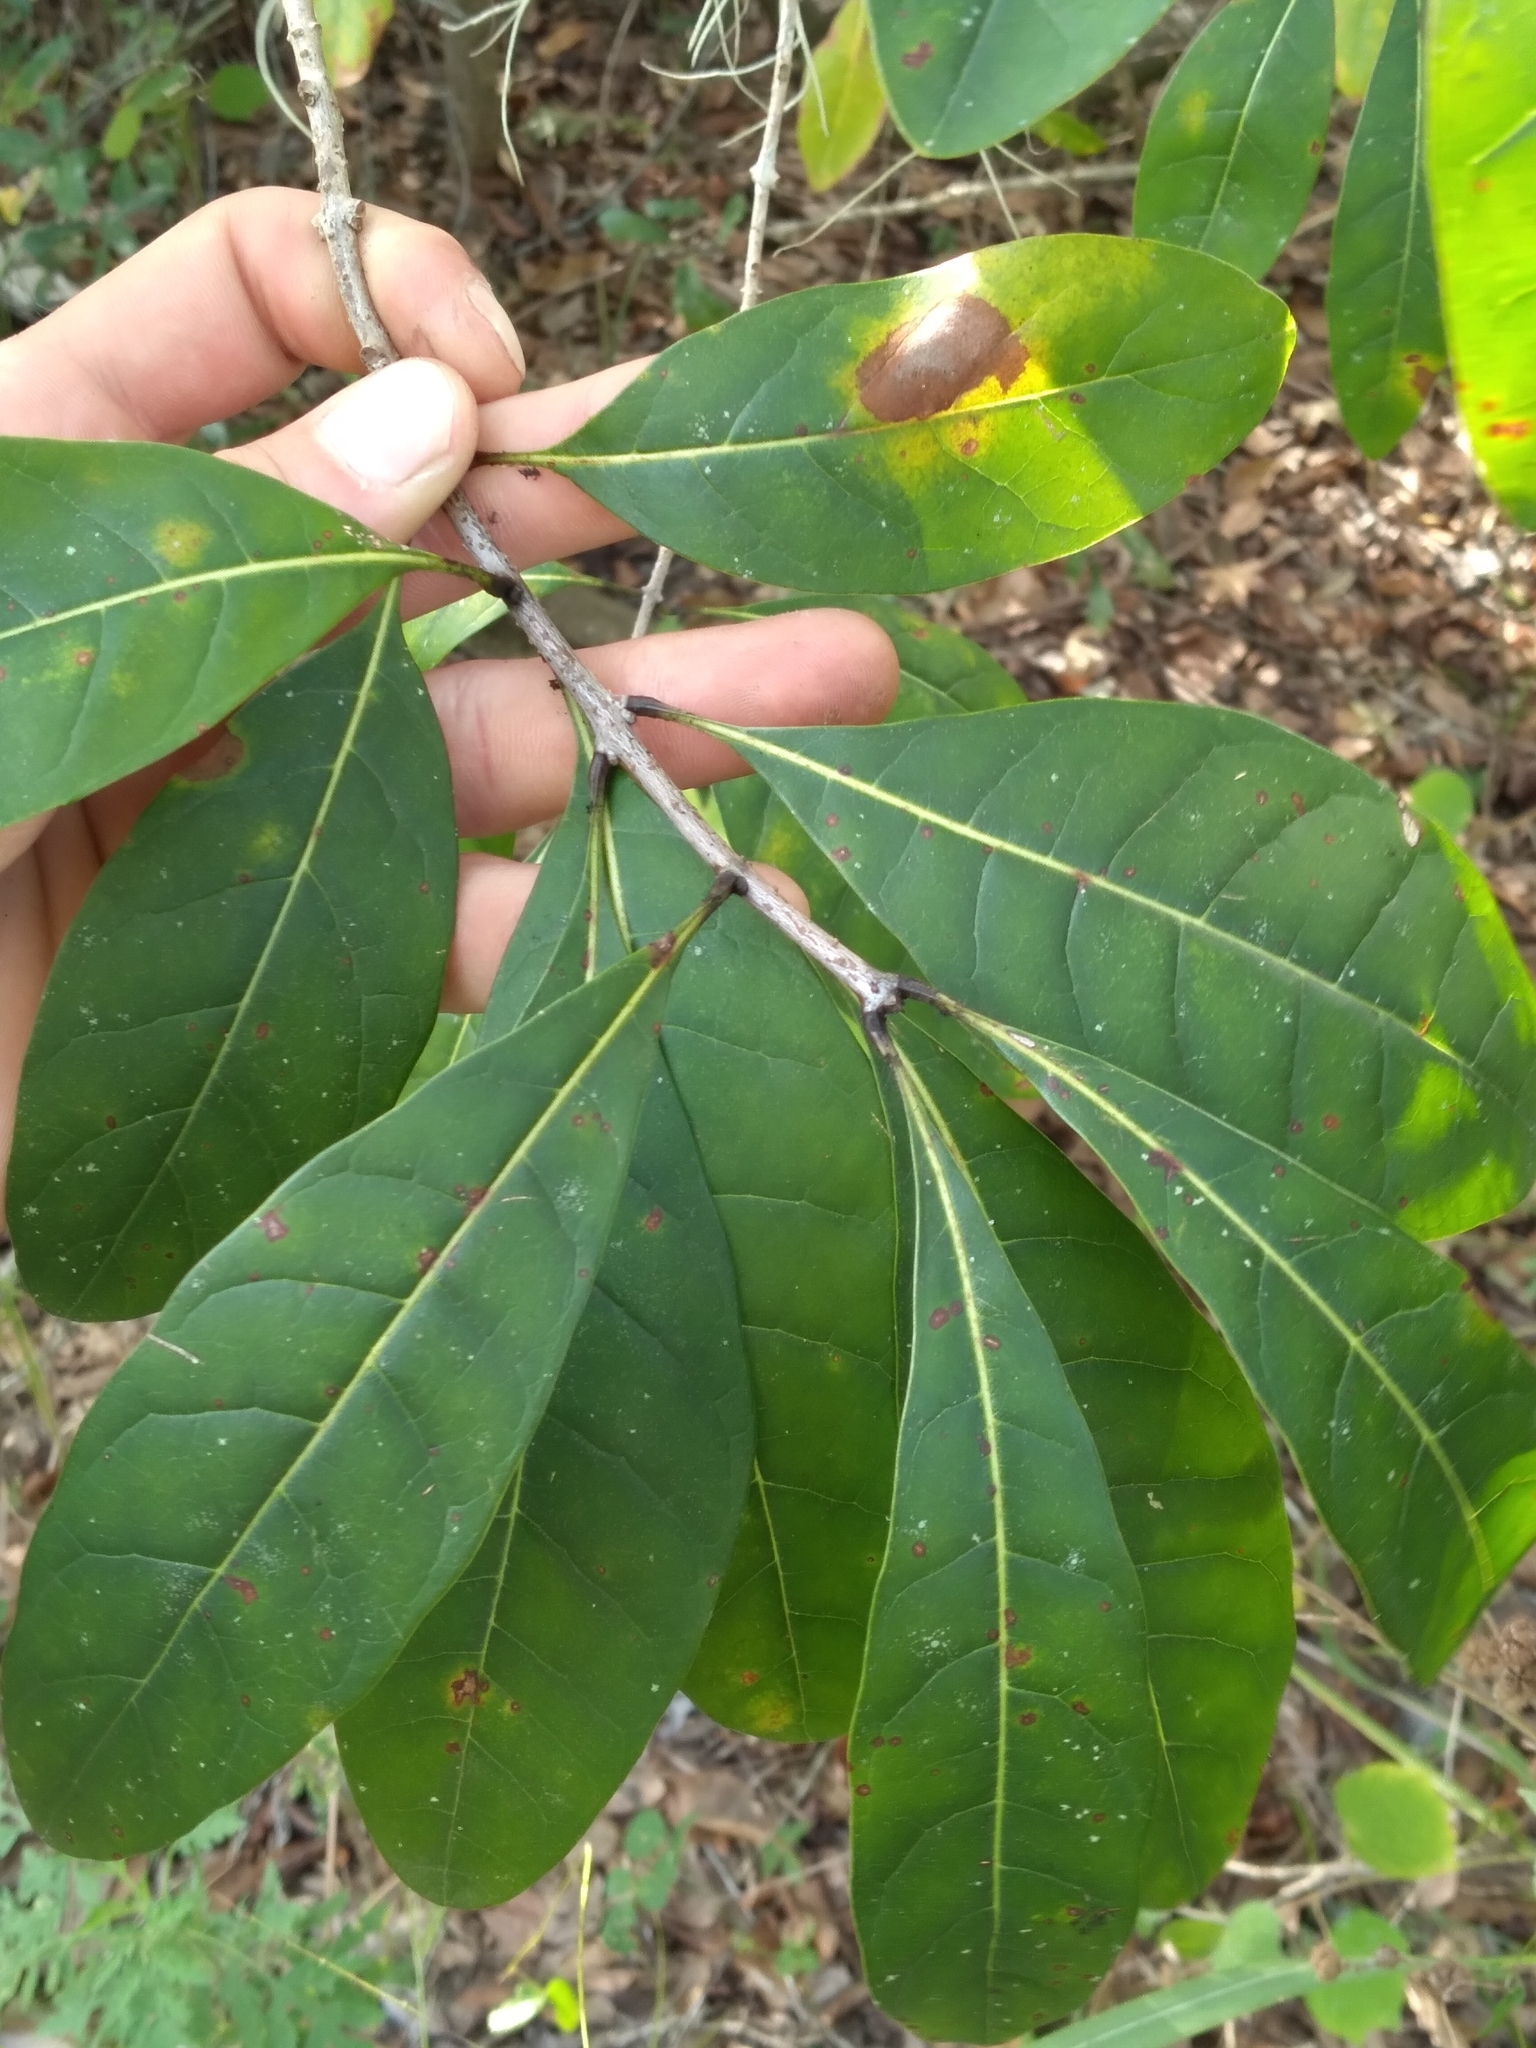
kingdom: Plantae
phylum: Tracheophyta
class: Magnoliopsida
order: Lamiales
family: Oleaceae
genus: Chionanthus
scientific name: Chionanthus virginicus
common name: American fringetree
